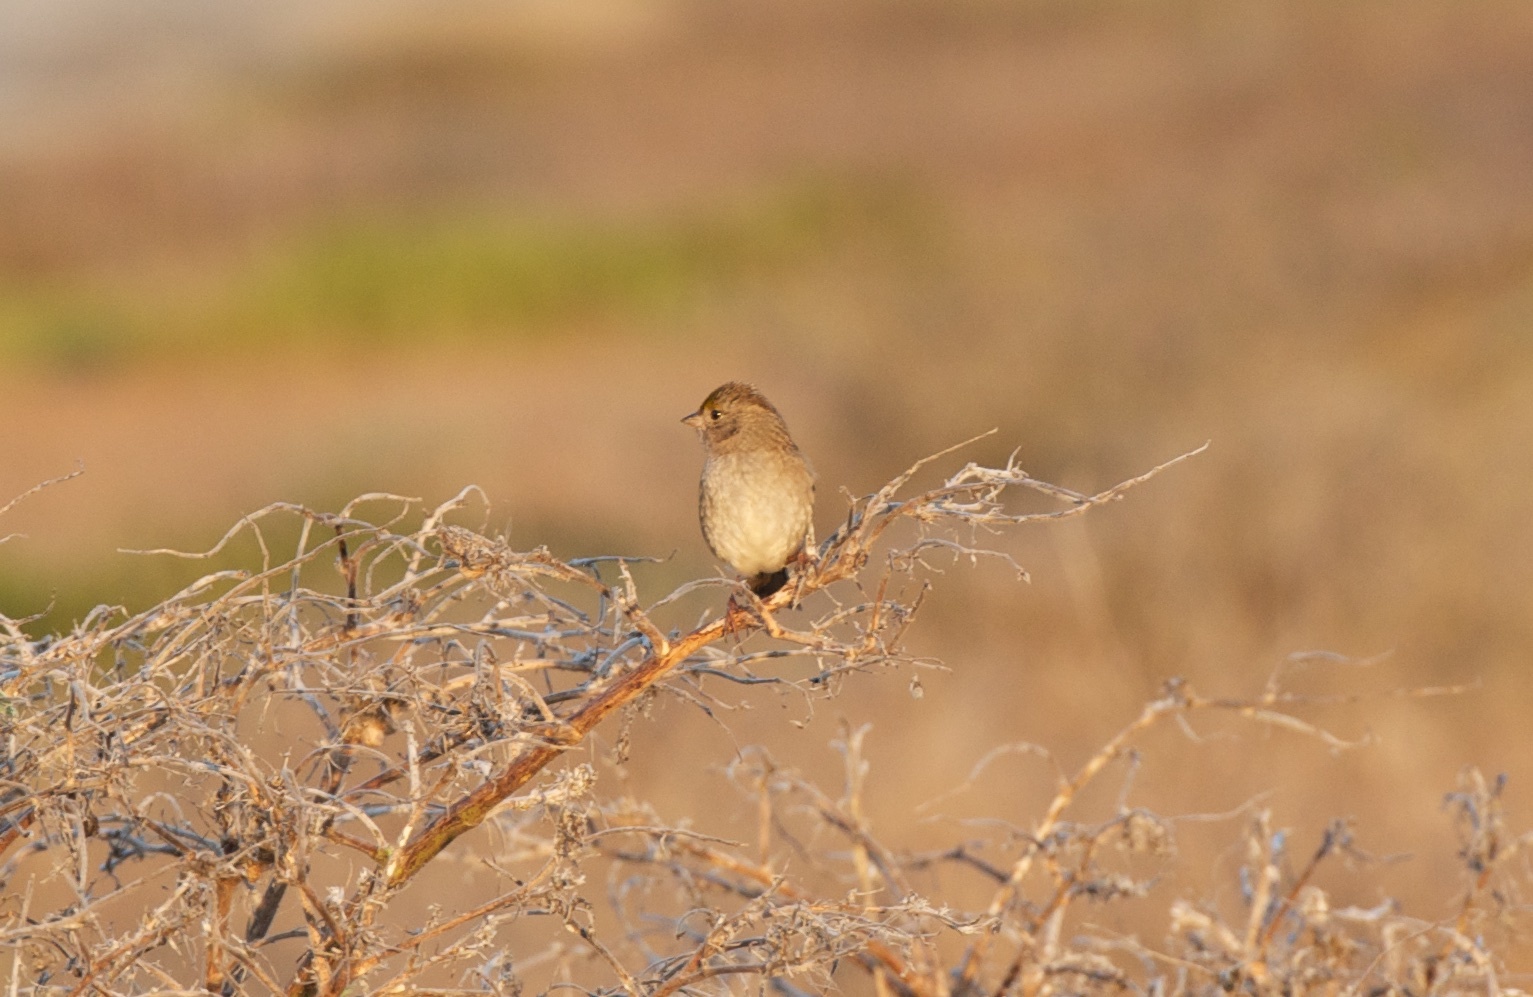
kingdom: Animalia
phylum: Chordata
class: Aves
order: Passeriformes
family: Passerellidae
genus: Zonotrichia
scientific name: Zonotrichia atricapilla
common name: Golden-crowned sparrow
